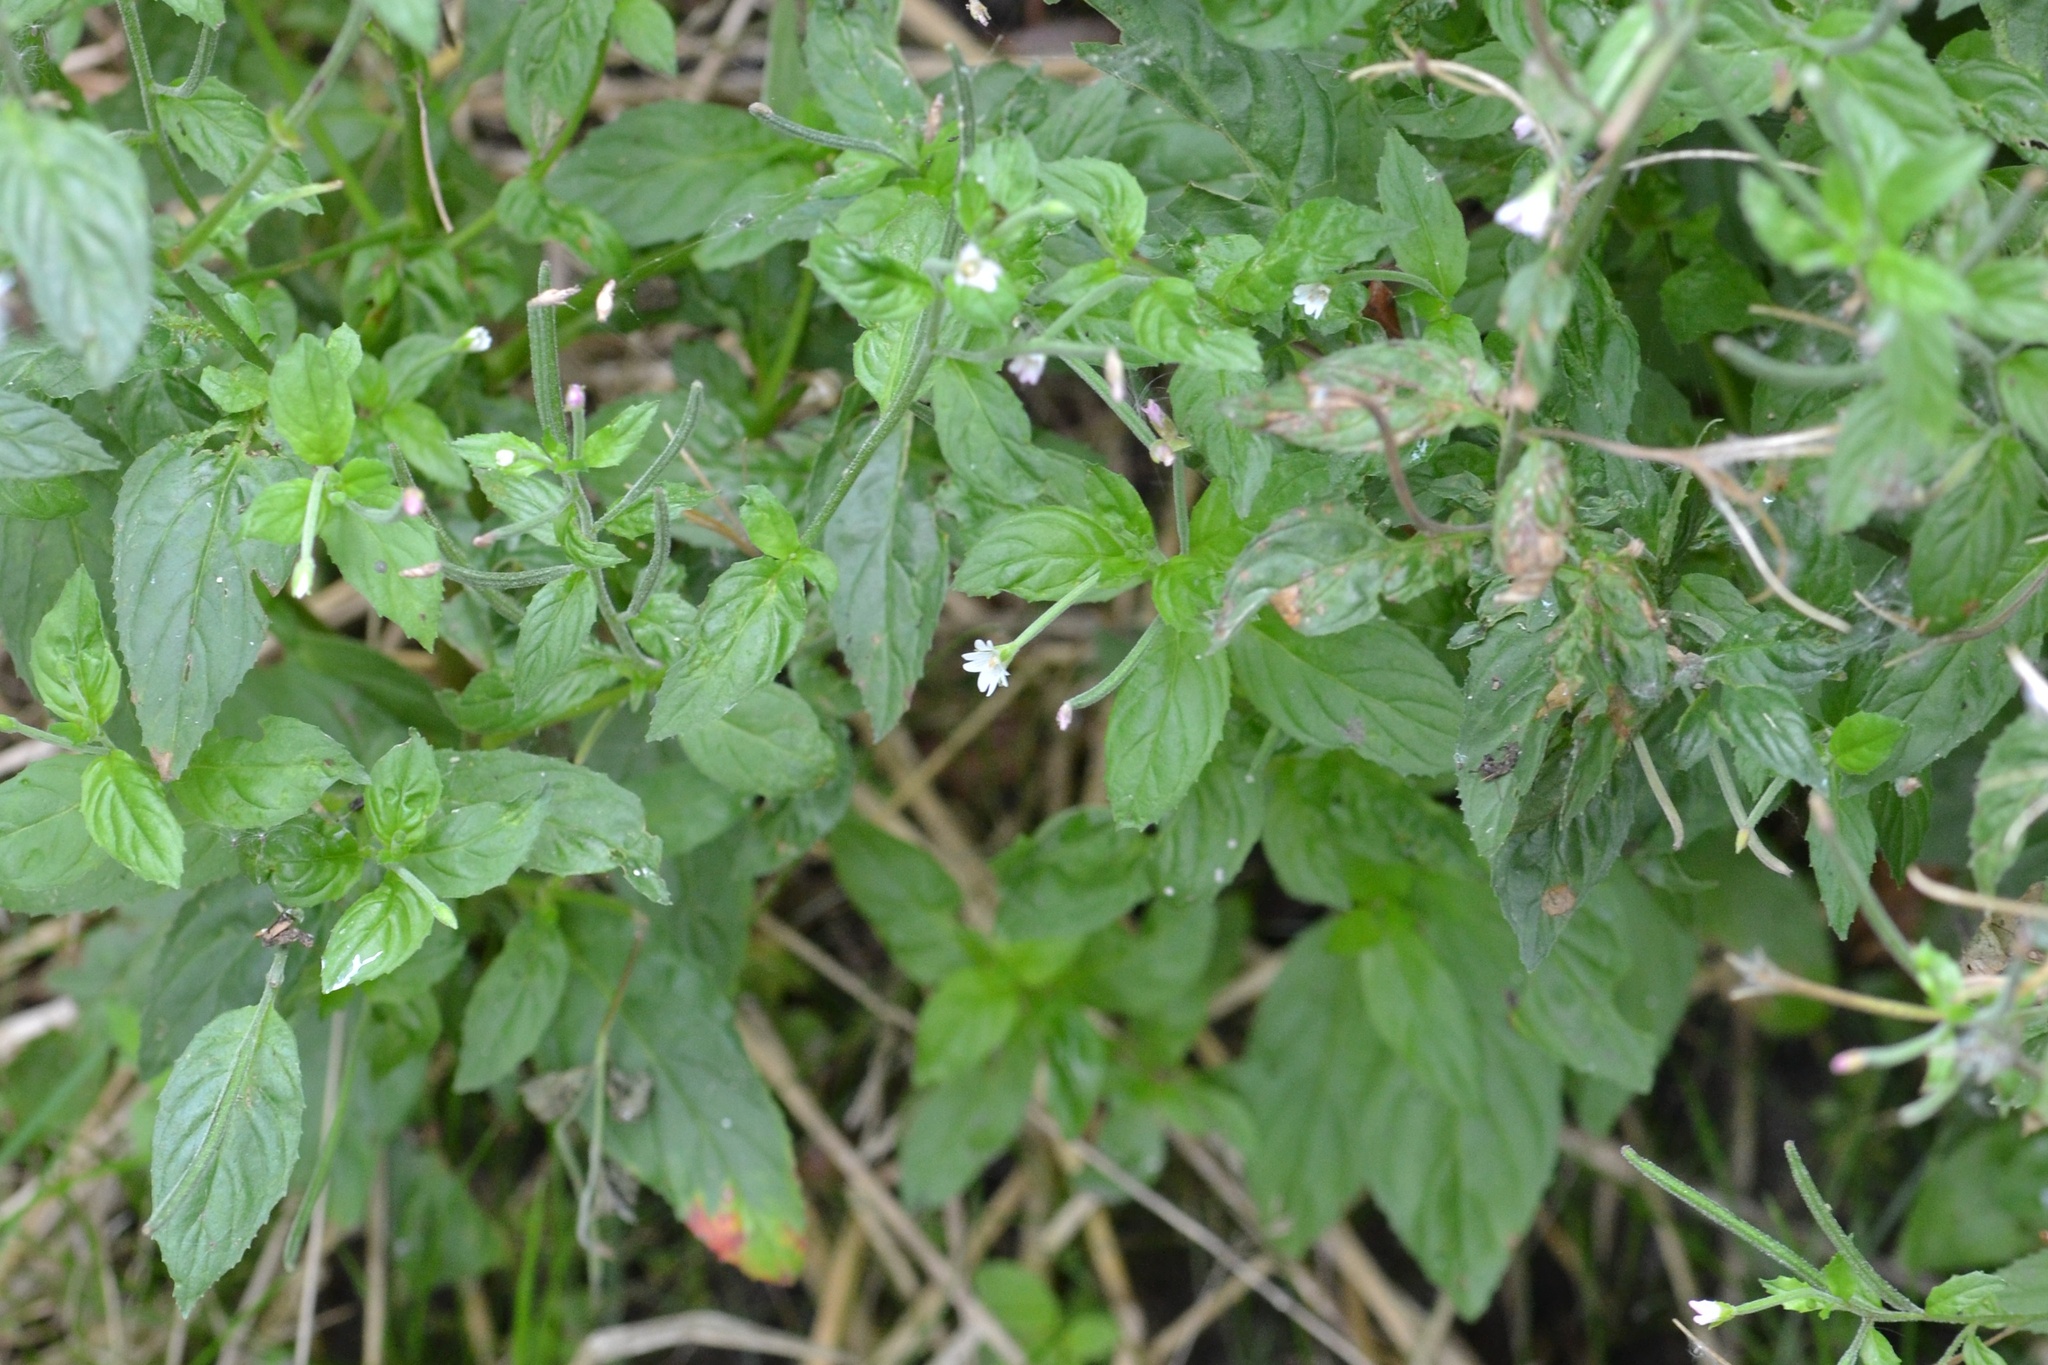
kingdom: Plantae
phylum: Tracheophyta
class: Magnoliopsida
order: Myrtales
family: Onagraceae
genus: Epilobium
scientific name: Epilobium roseum
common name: Pale willowherb
